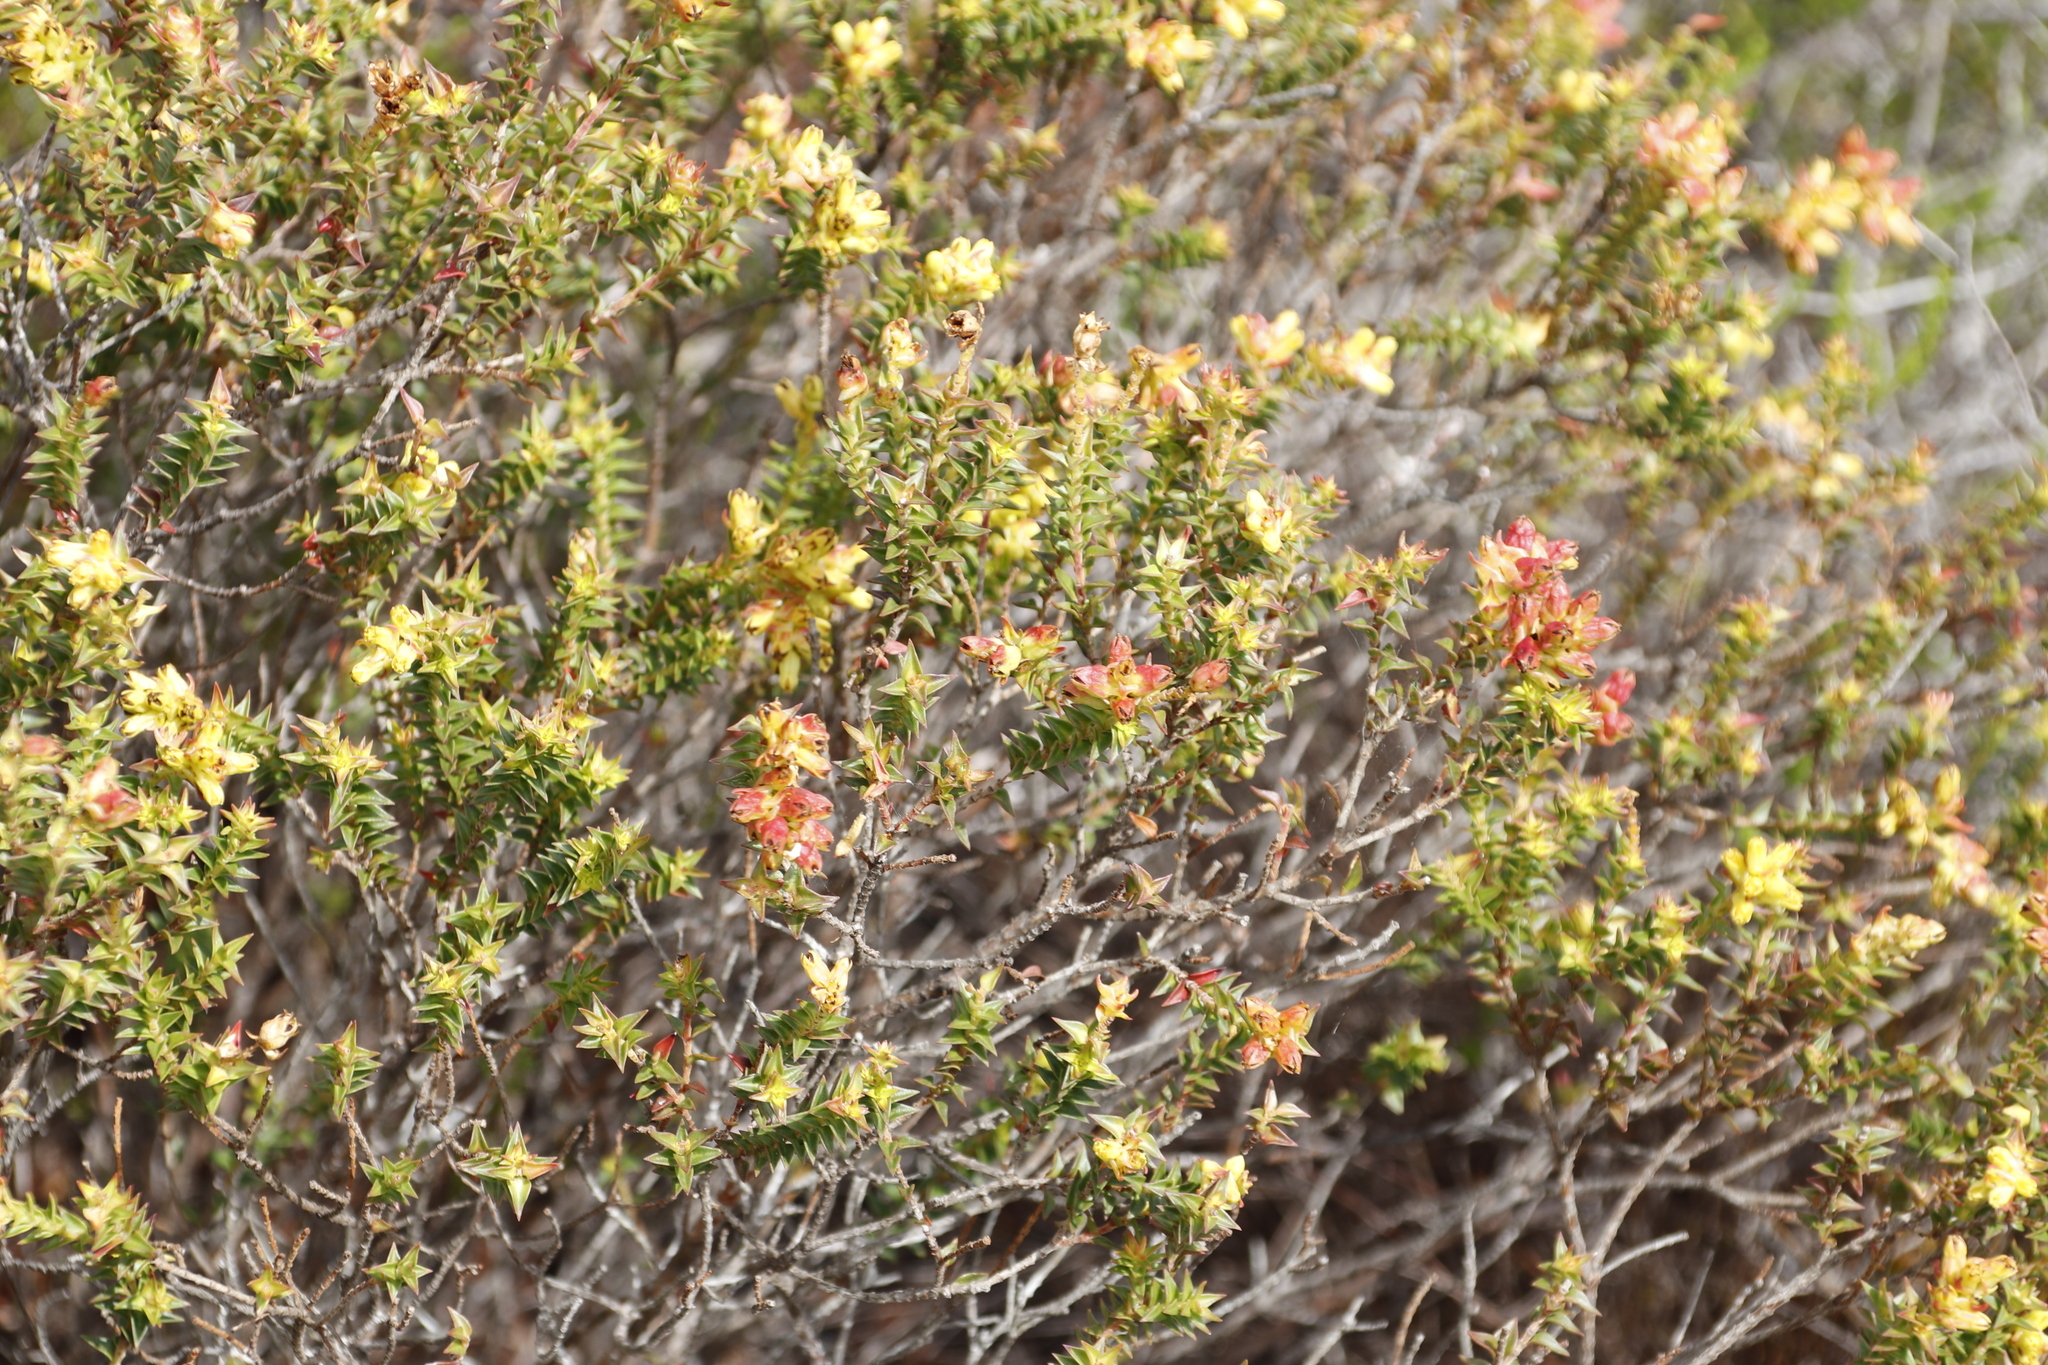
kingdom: Plantae
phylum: Tracheophyta
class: Magnoliopsida
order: Myrtales
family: Penaeaceae
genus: Penaea
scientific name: Penaea mucronata
